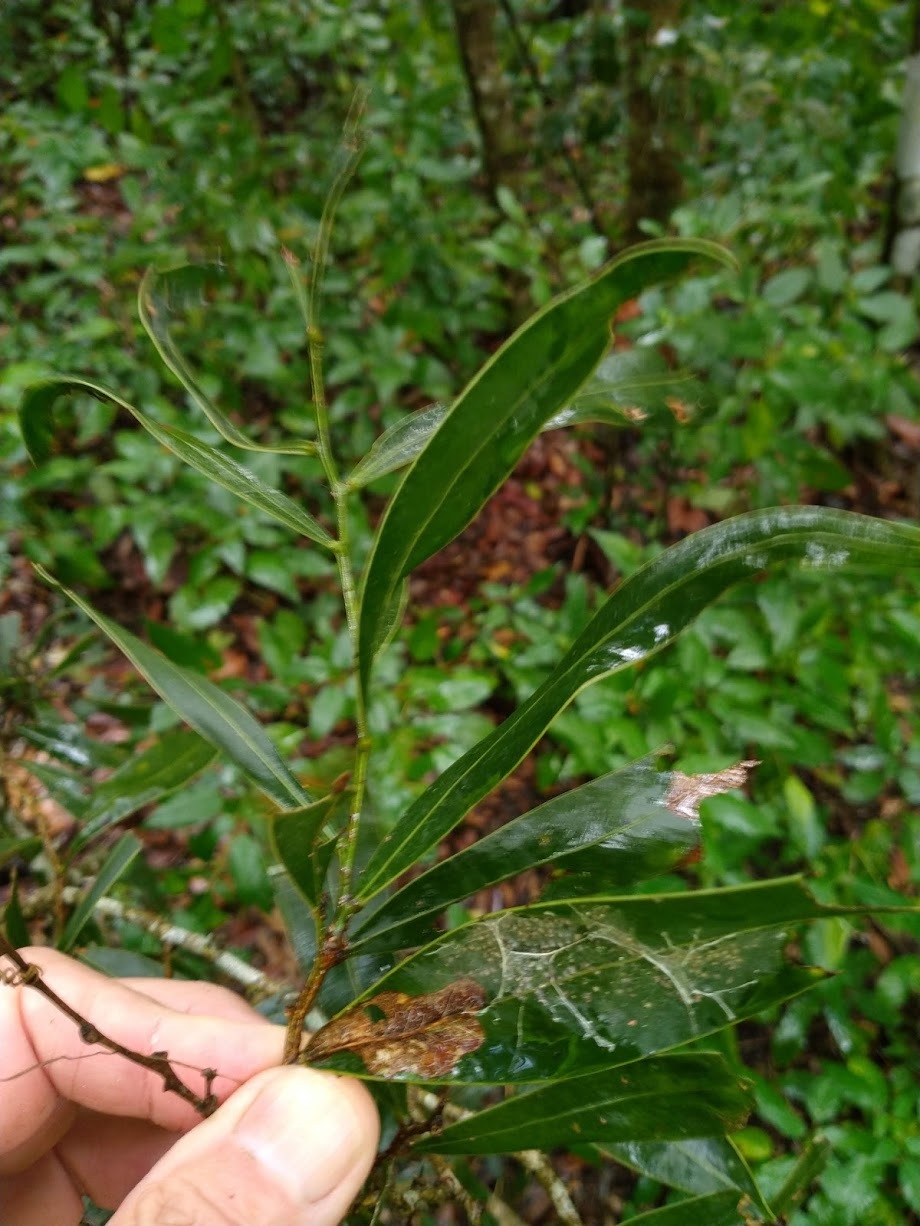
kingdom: Plantae
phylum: Tracheophyta
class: Magnoliopsida
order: Fabales
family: Fabaceae
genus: Acacia
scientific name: Acacia fasciculifera
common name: Scalybark
